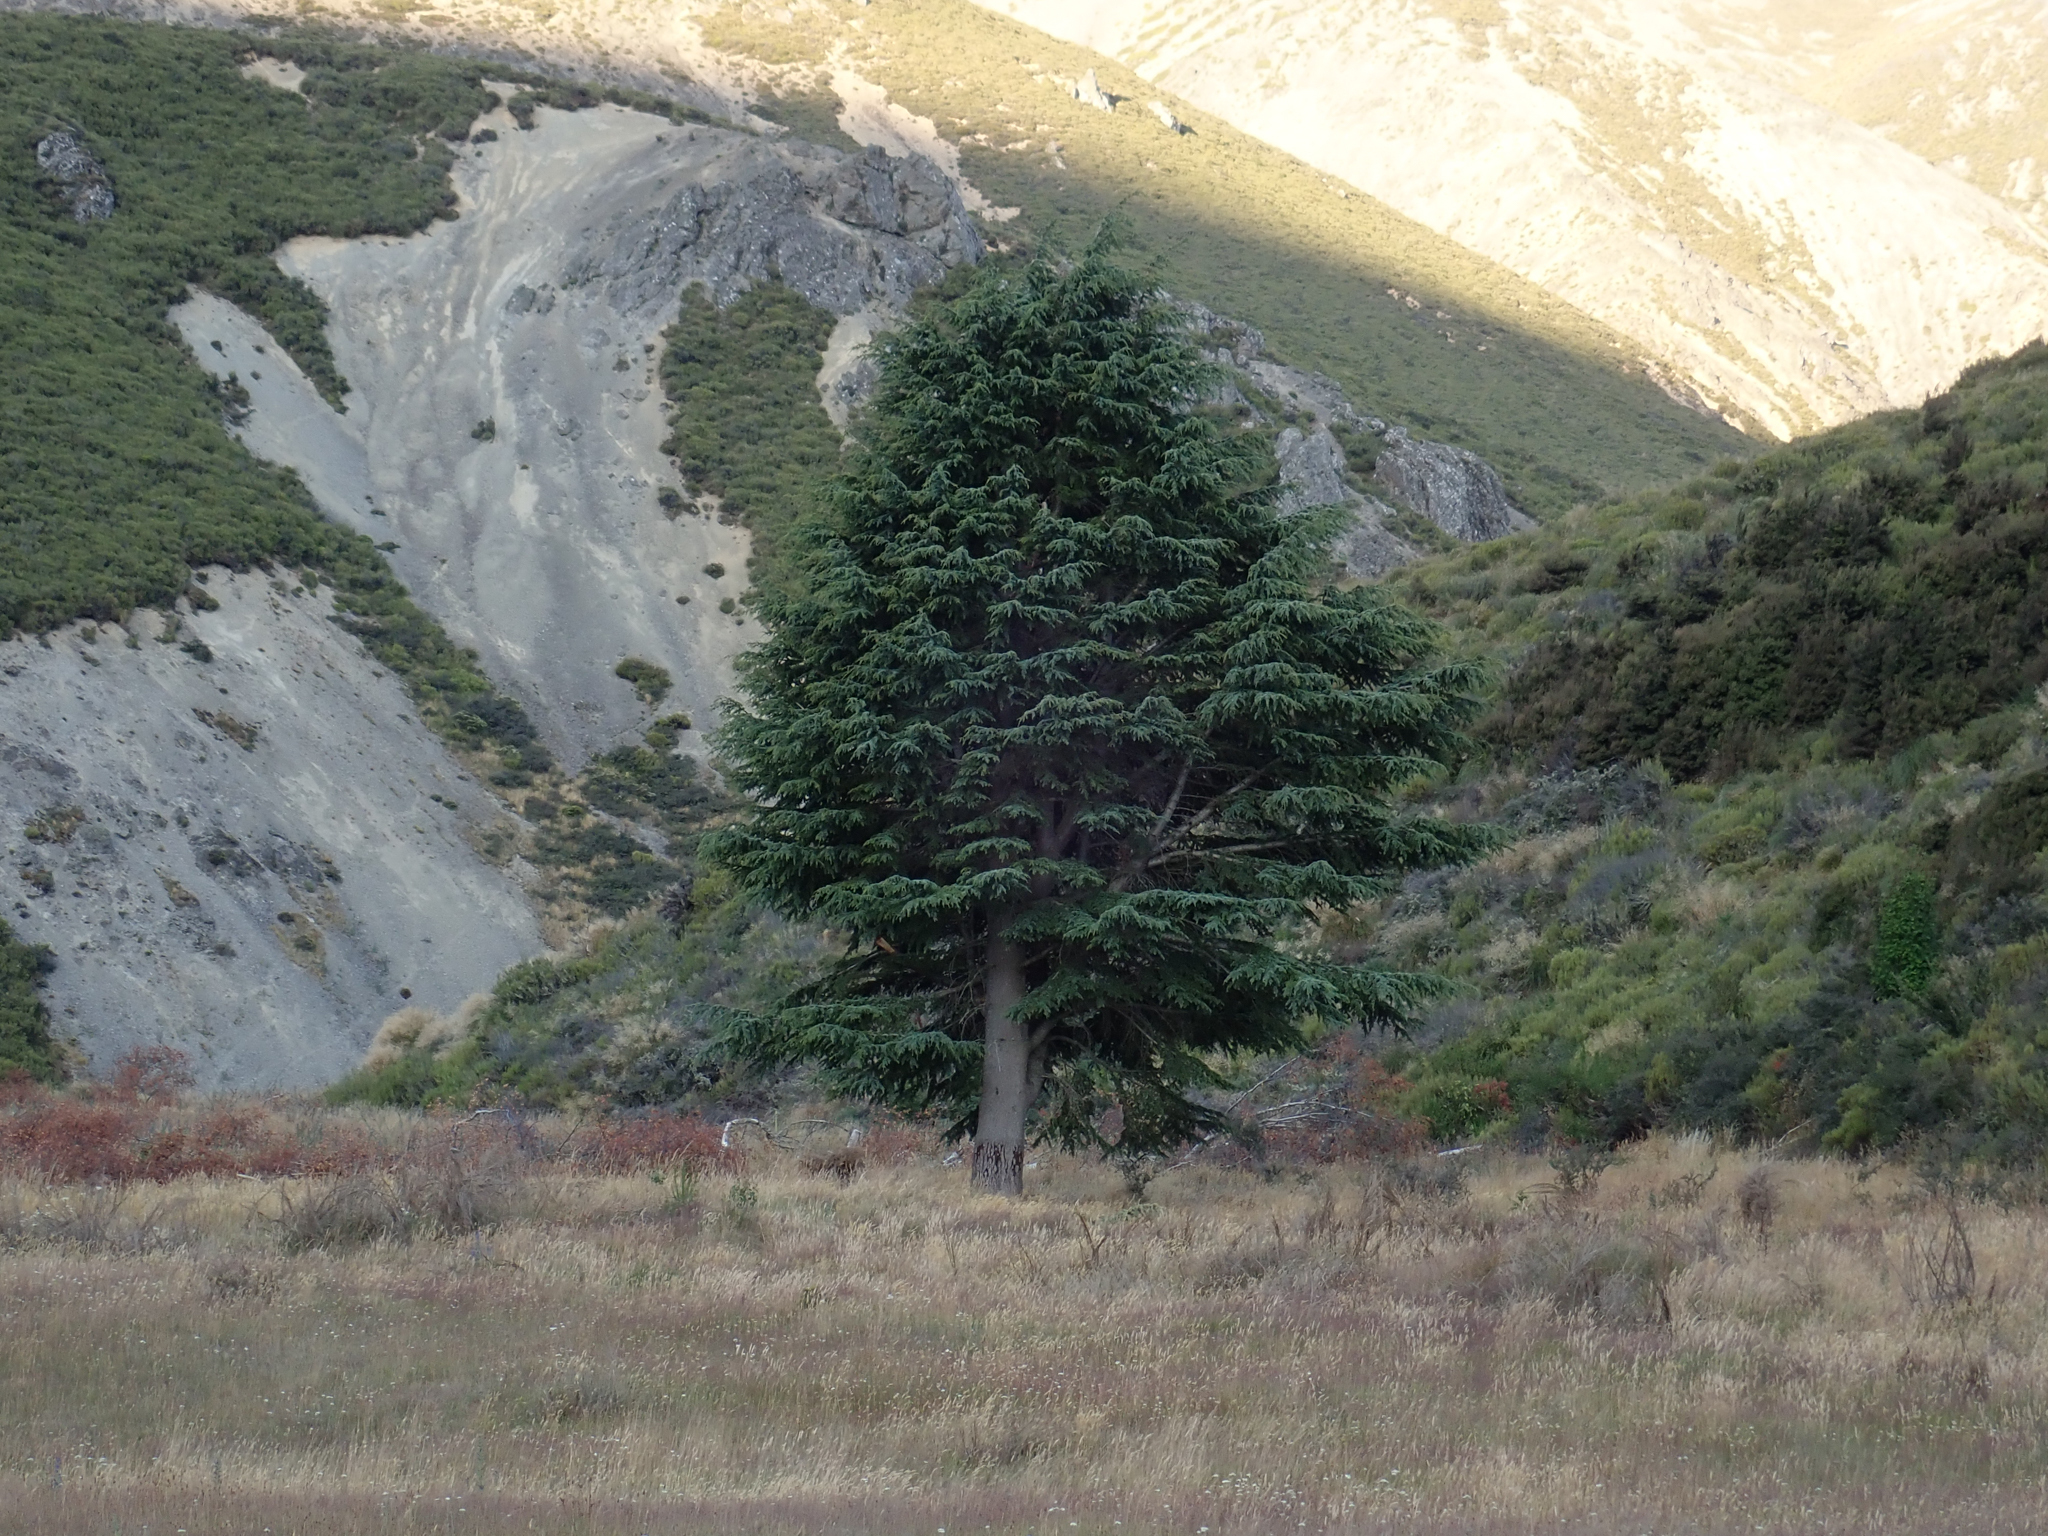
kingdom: Plantae
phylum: Tracheophyta
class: Magnoliopsida
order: Fagales
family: Nothofagaceae
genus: Nothofagus
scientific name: Nothofagus cliffortioides
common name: Mountain beech
